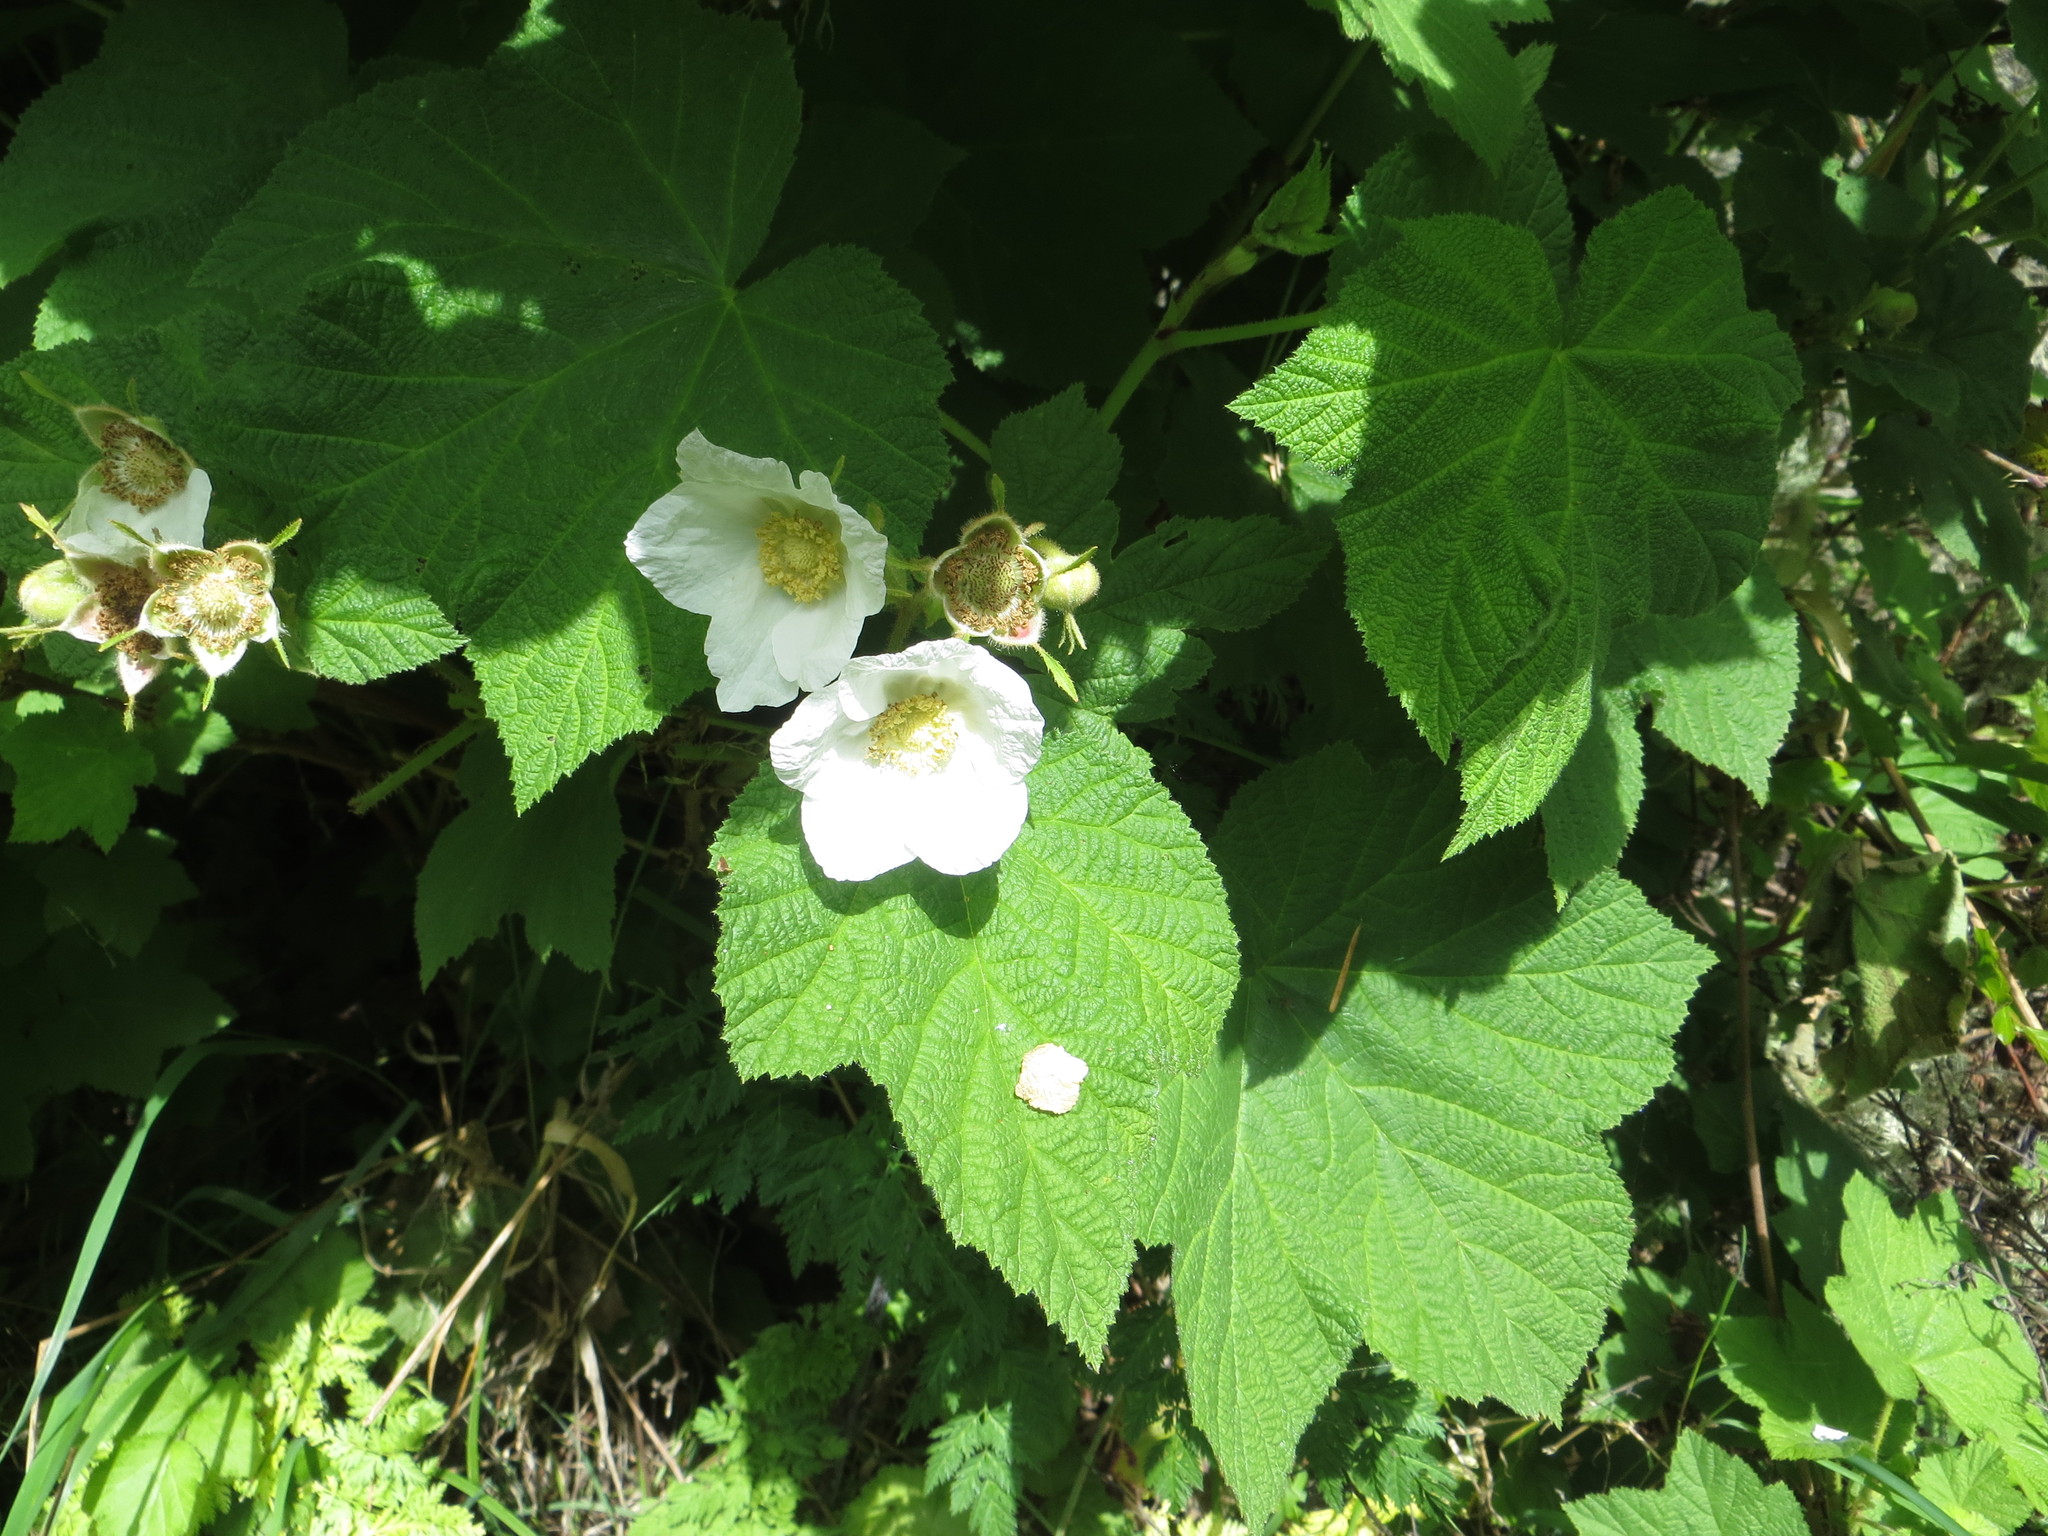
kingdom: Plantae
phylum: Tracheophyta
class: Magnoliopsida
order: Rosales
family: Rosaceae
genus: Rubus
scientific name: Rubus parviflorus
